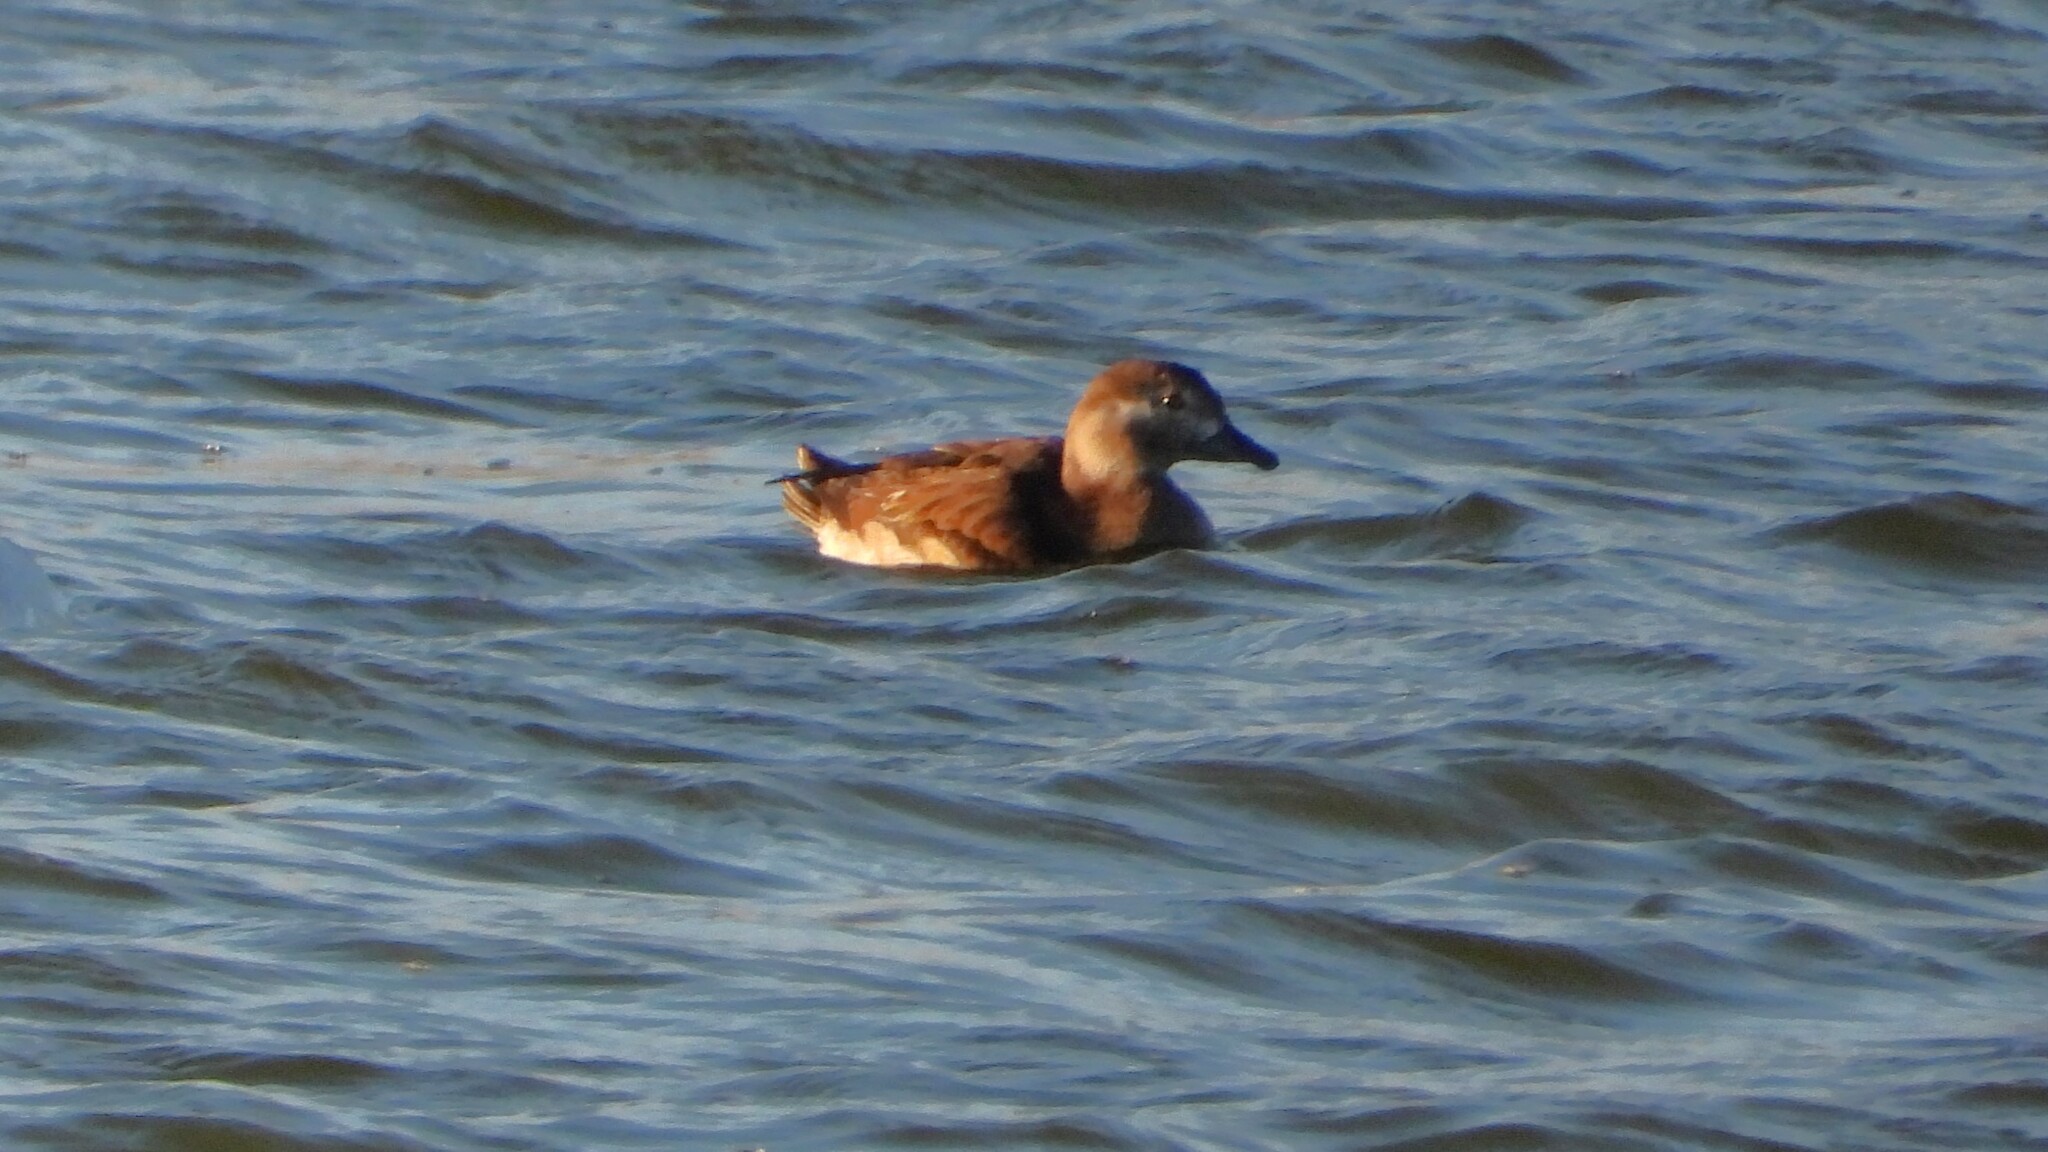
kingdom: Animalia
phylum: Chordata
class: Aves
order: Anseriformes
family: Anatidae
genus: Clangula
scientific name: Clangula hyemalis
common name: Long-tailed duck
